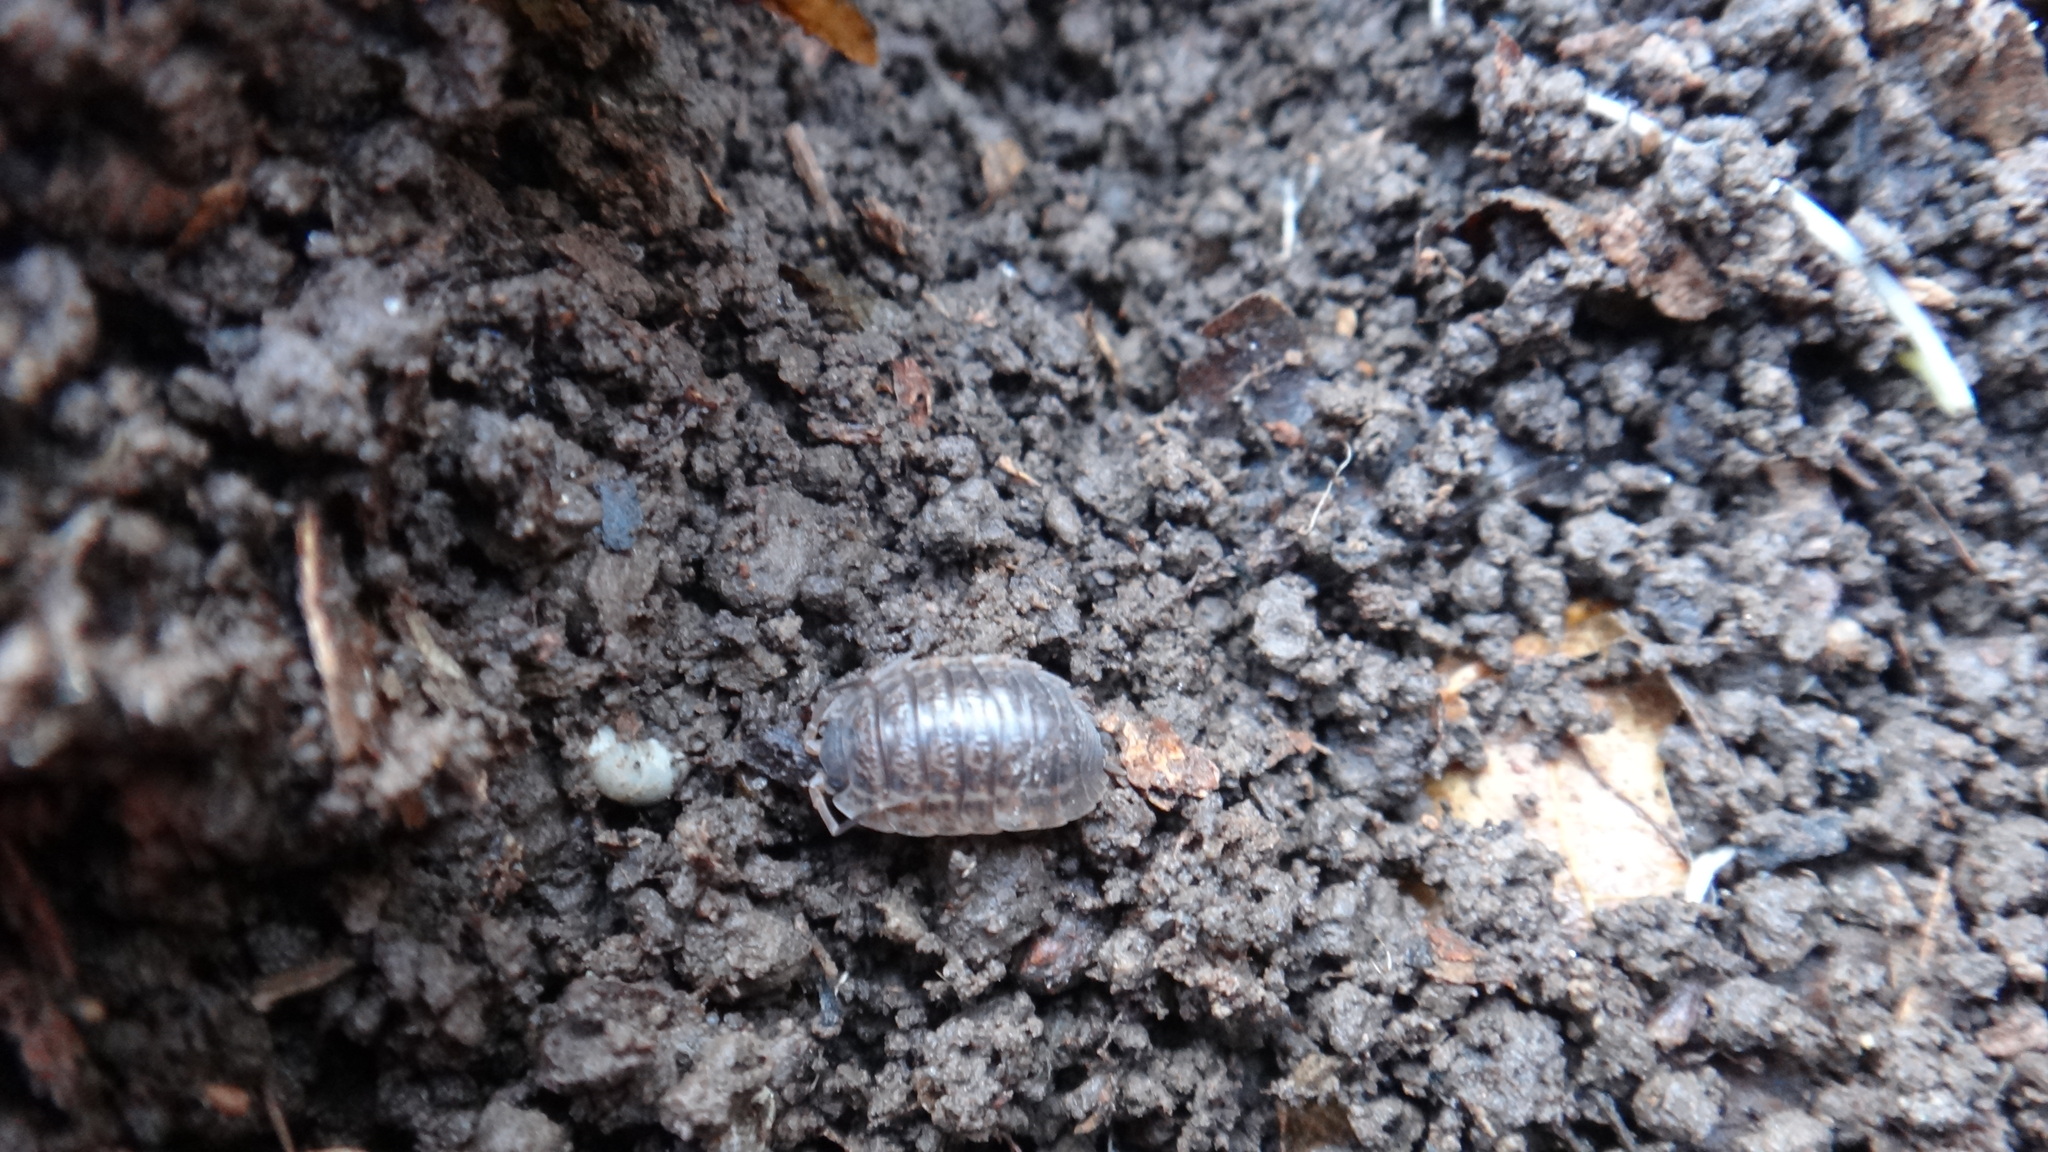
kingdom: Animalia
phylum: Arthropoda
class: Malacostraca
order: Isopoda
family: Trachelipodidae
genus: Trachelipus
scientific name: Trachelipus rathkii
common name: Isopod
